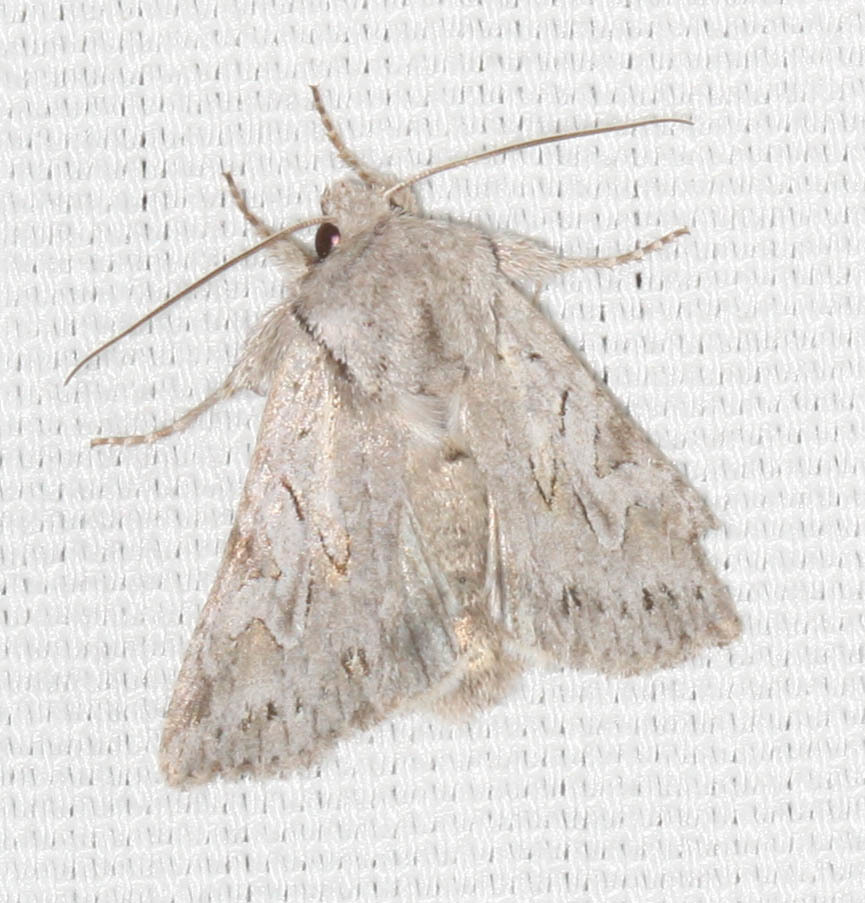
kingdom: Animalia
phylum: Arthropoda
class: Insecta
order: Lepidoptera
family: Noctuidae
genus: Lacinipolia
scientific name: Lacinipolia patalis
